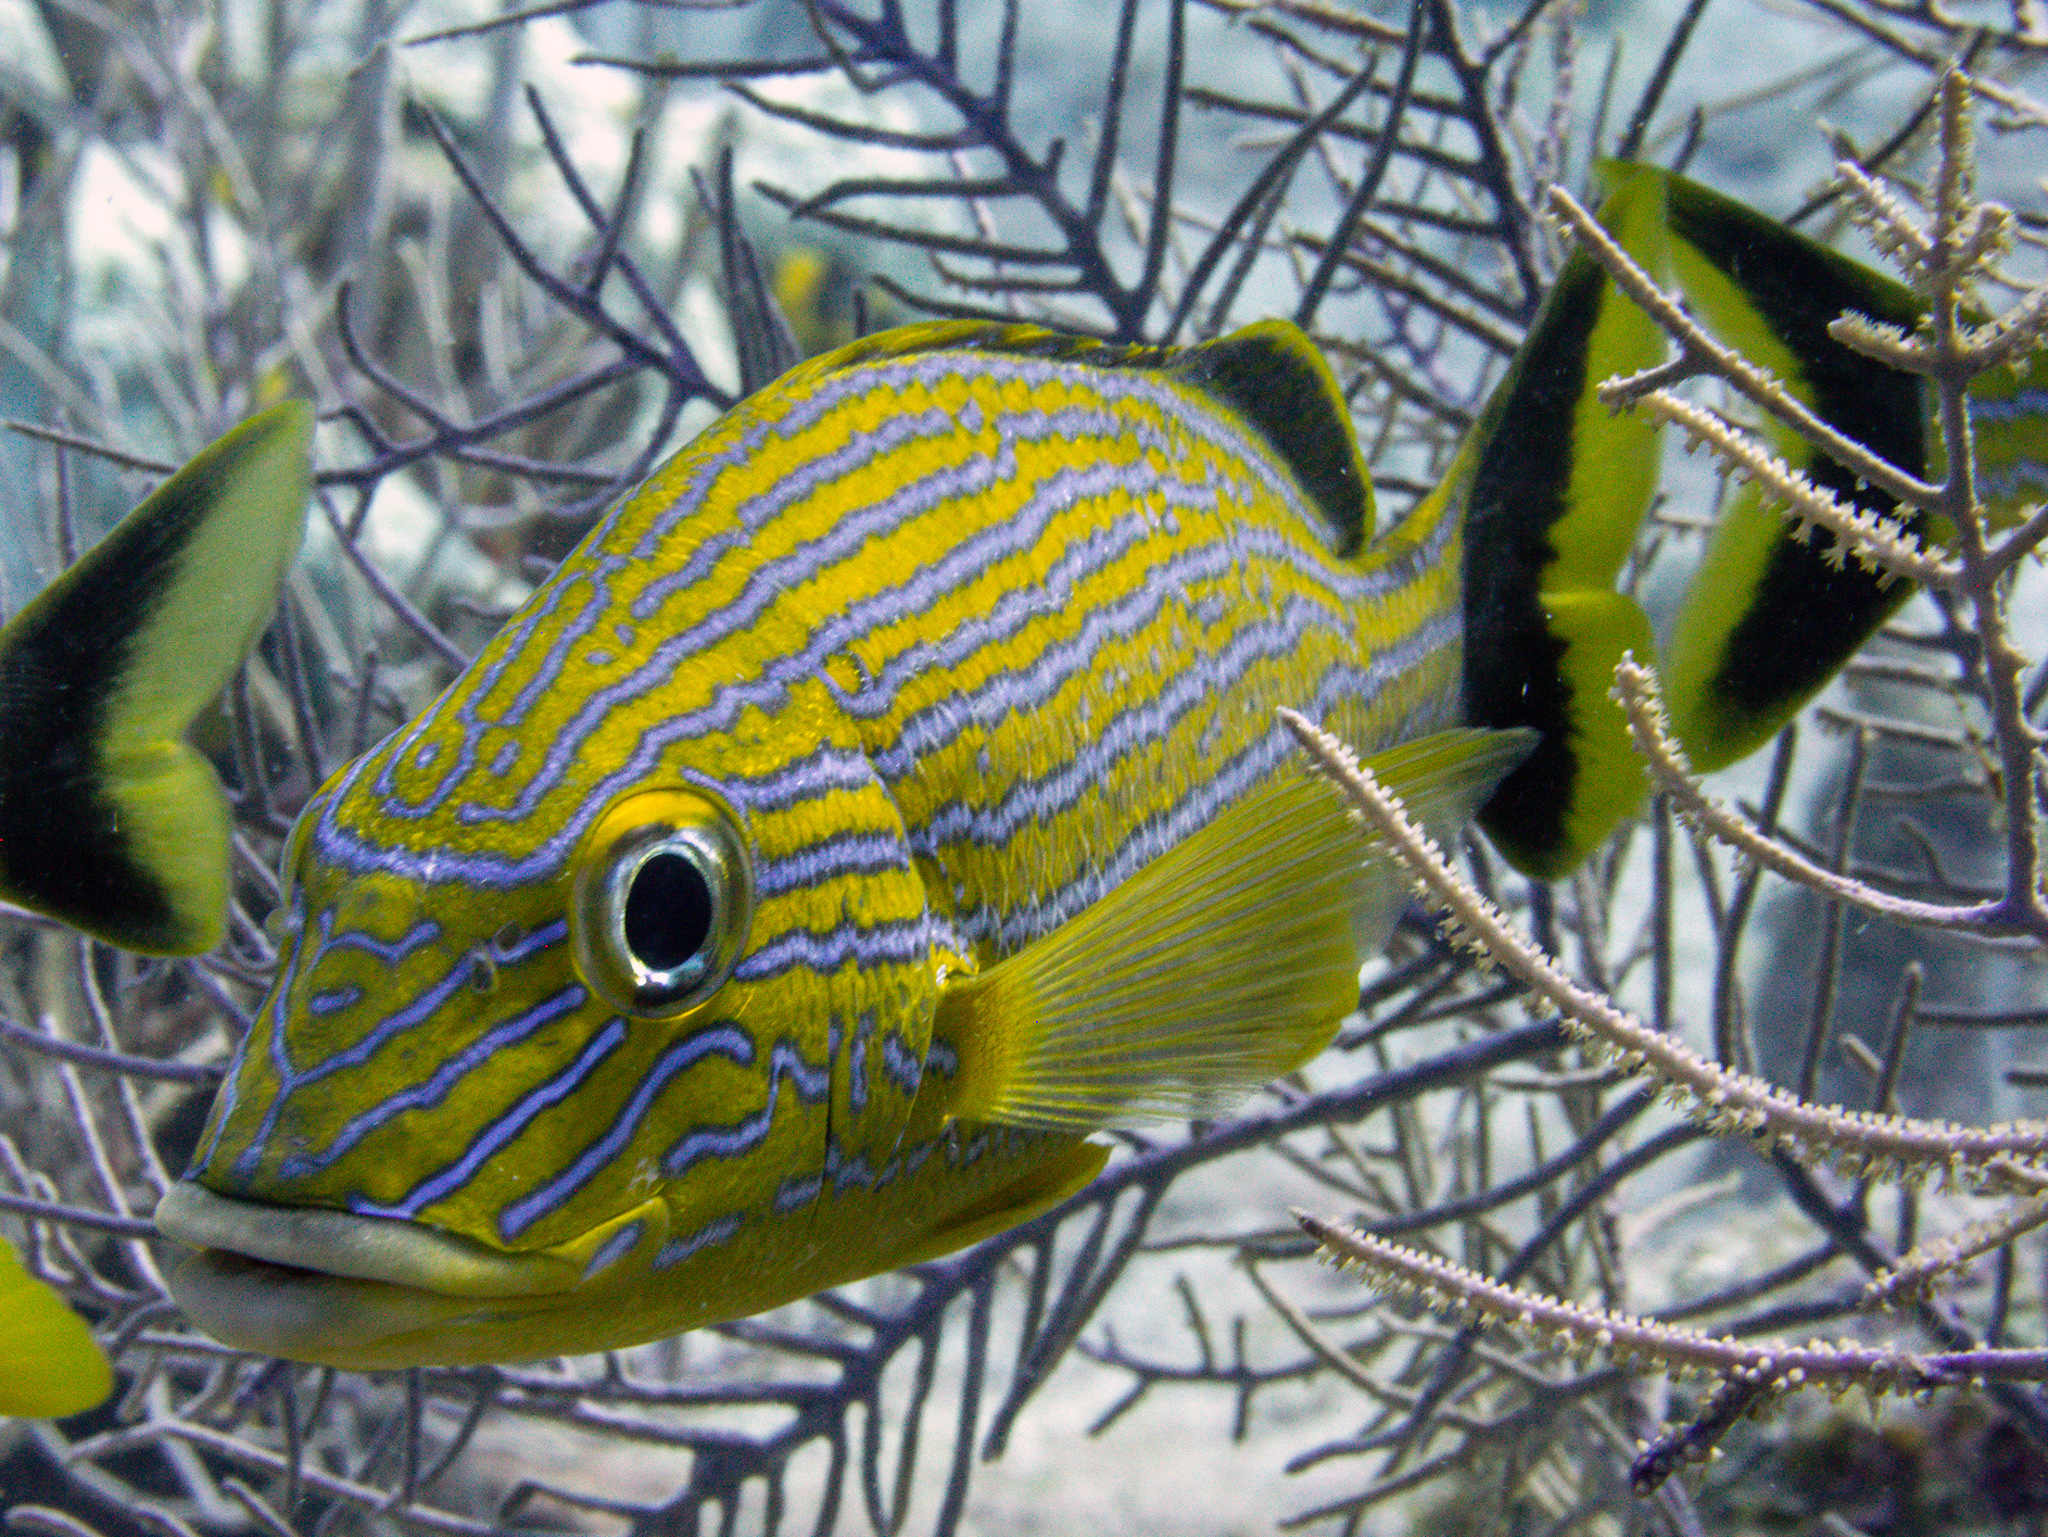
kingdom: Animalia
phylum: Chordata
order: Perciformes
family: Haemulidae
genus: Haemulon
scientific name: Haemulon sciurus
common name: Bluestriped grunt
